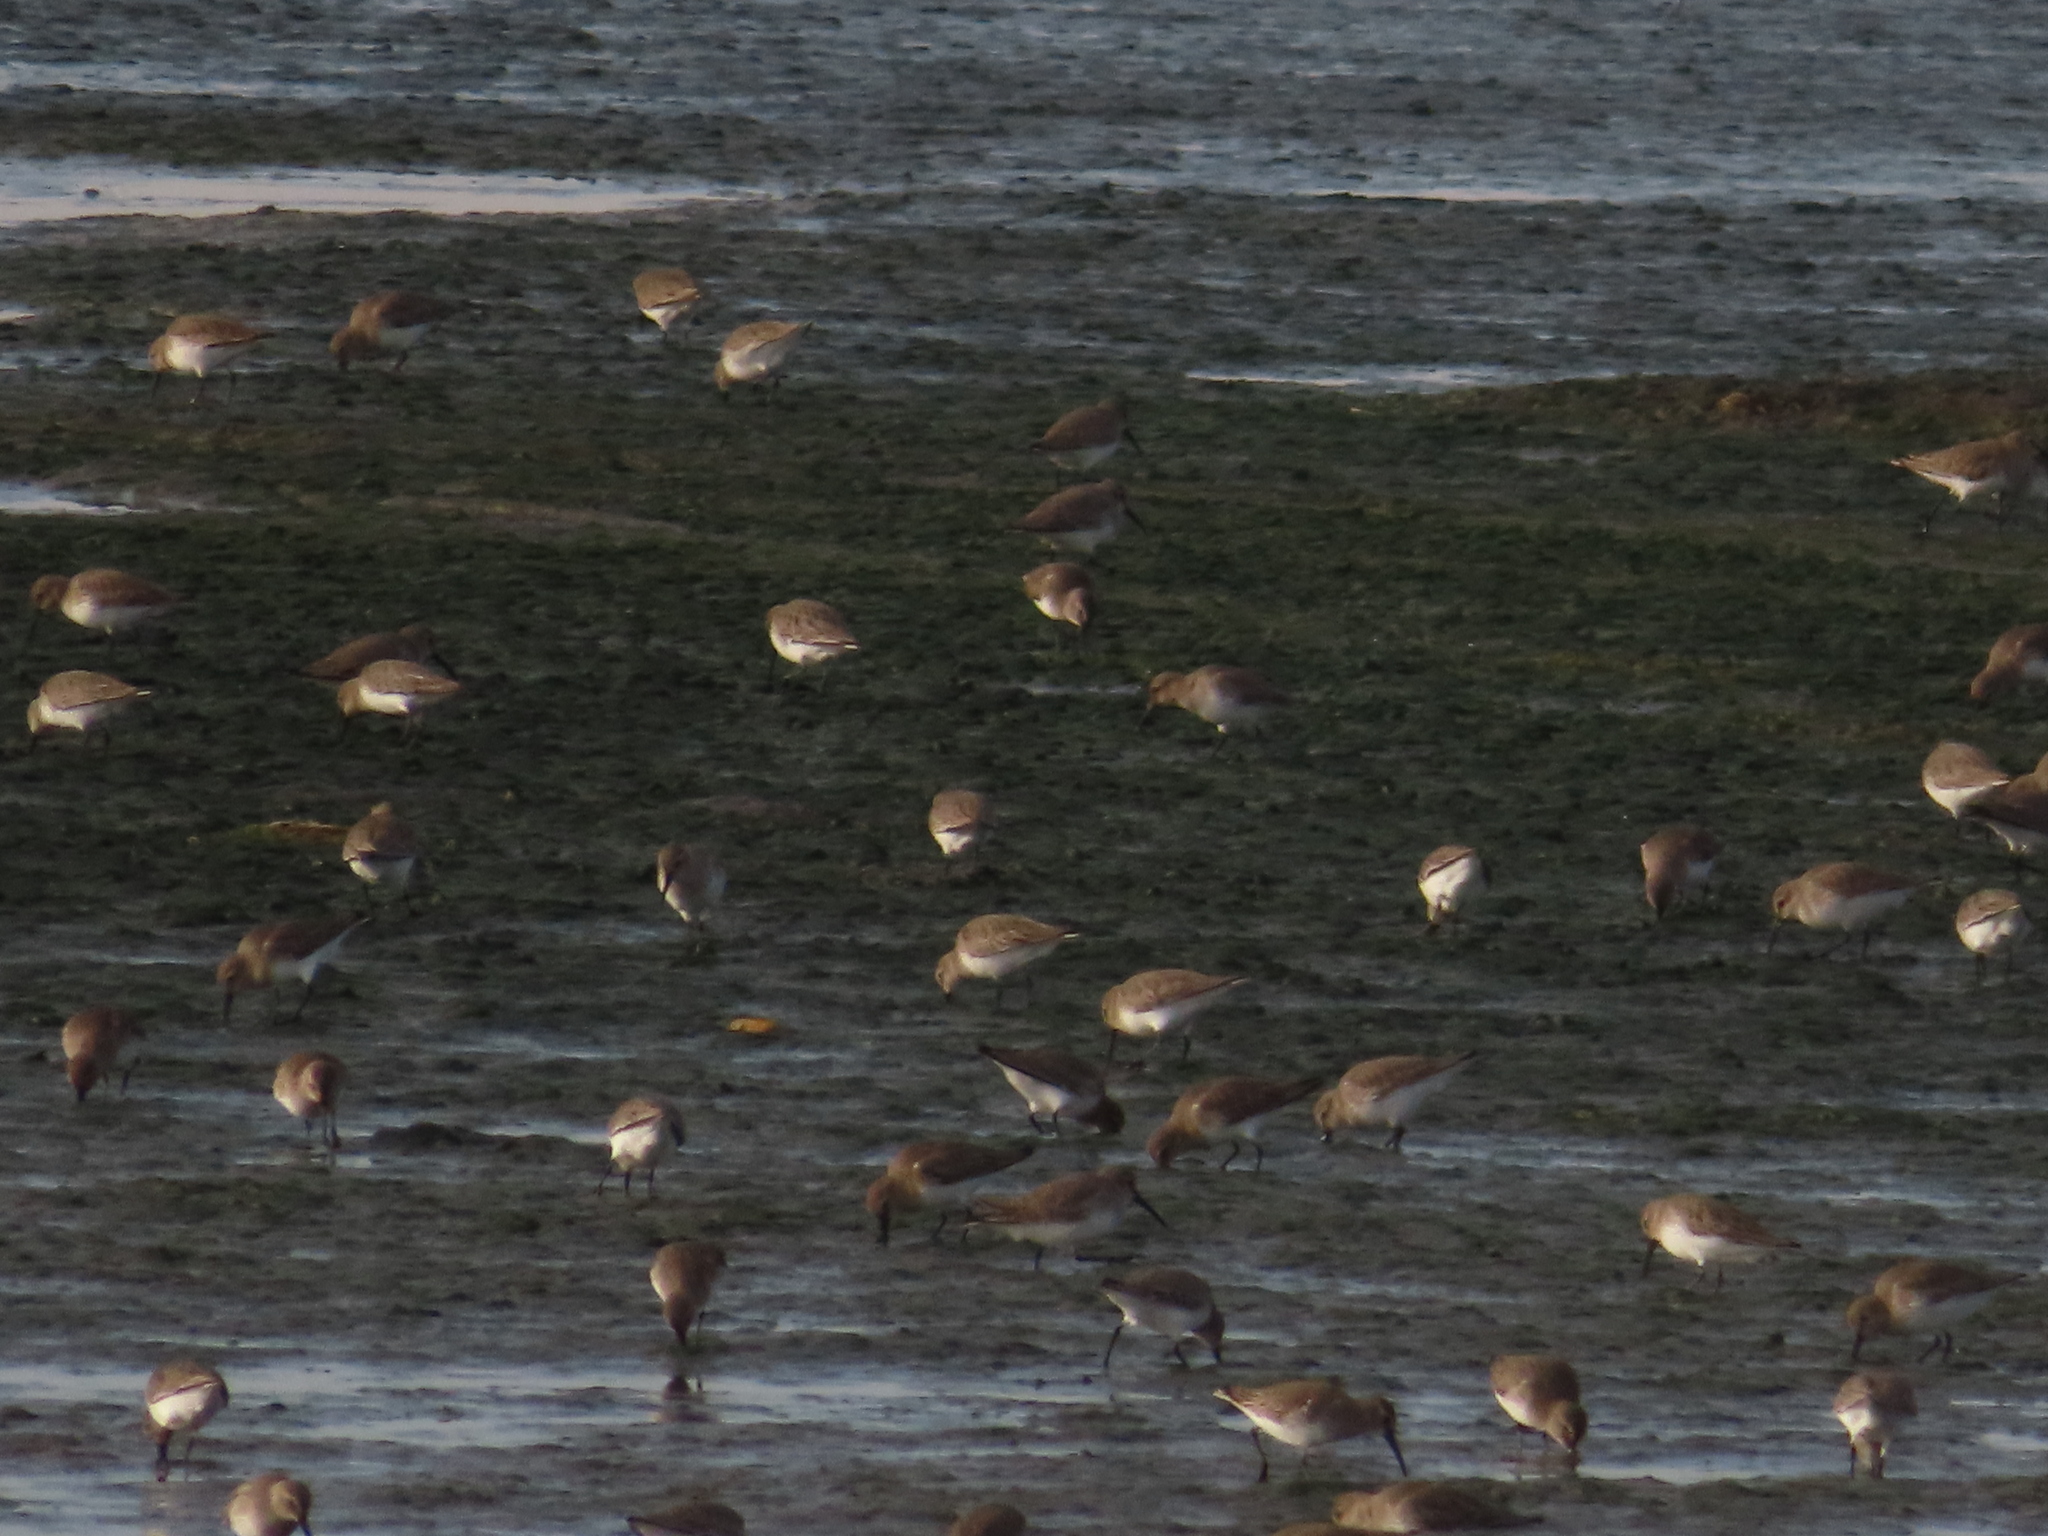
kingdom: Animalia
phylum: Chordata
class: Aves
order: Charadriiformes
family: Scolopacidae
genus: Calidris
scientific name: Calidris alpina
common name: Dunlin
